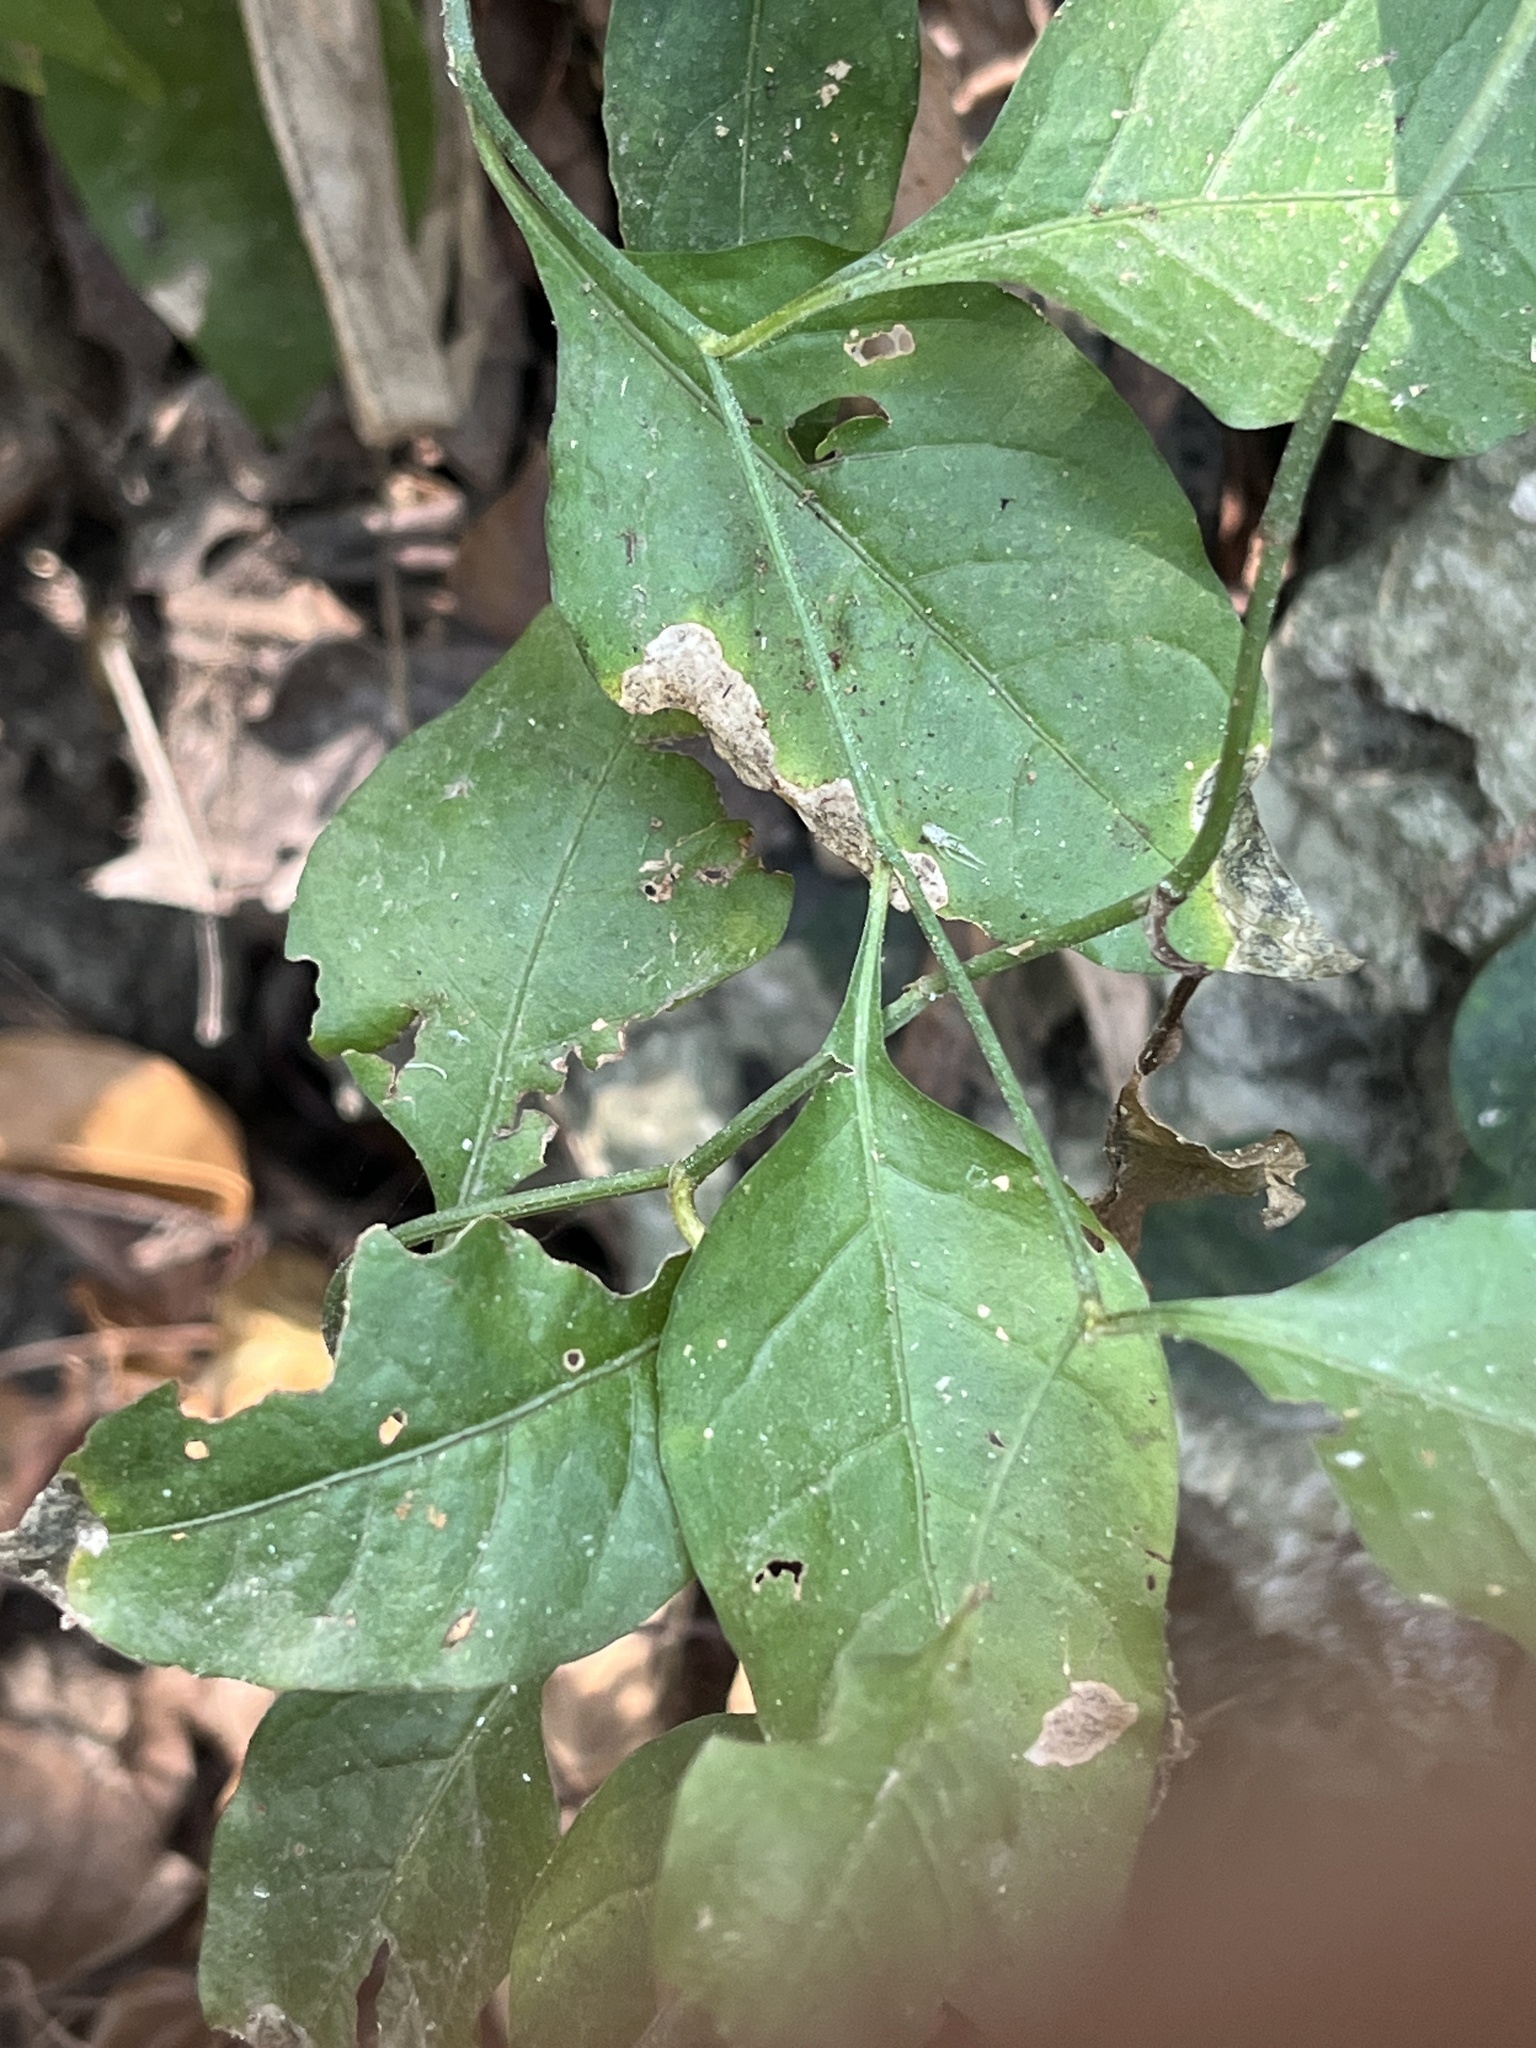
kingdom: Plantae
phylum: Tracheophyta
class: Magnoliopsida
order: Caryophyllales
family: Plumbaginaceae
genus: Plumbago
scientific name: Plumbago zeylanica
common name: Doctorbush
